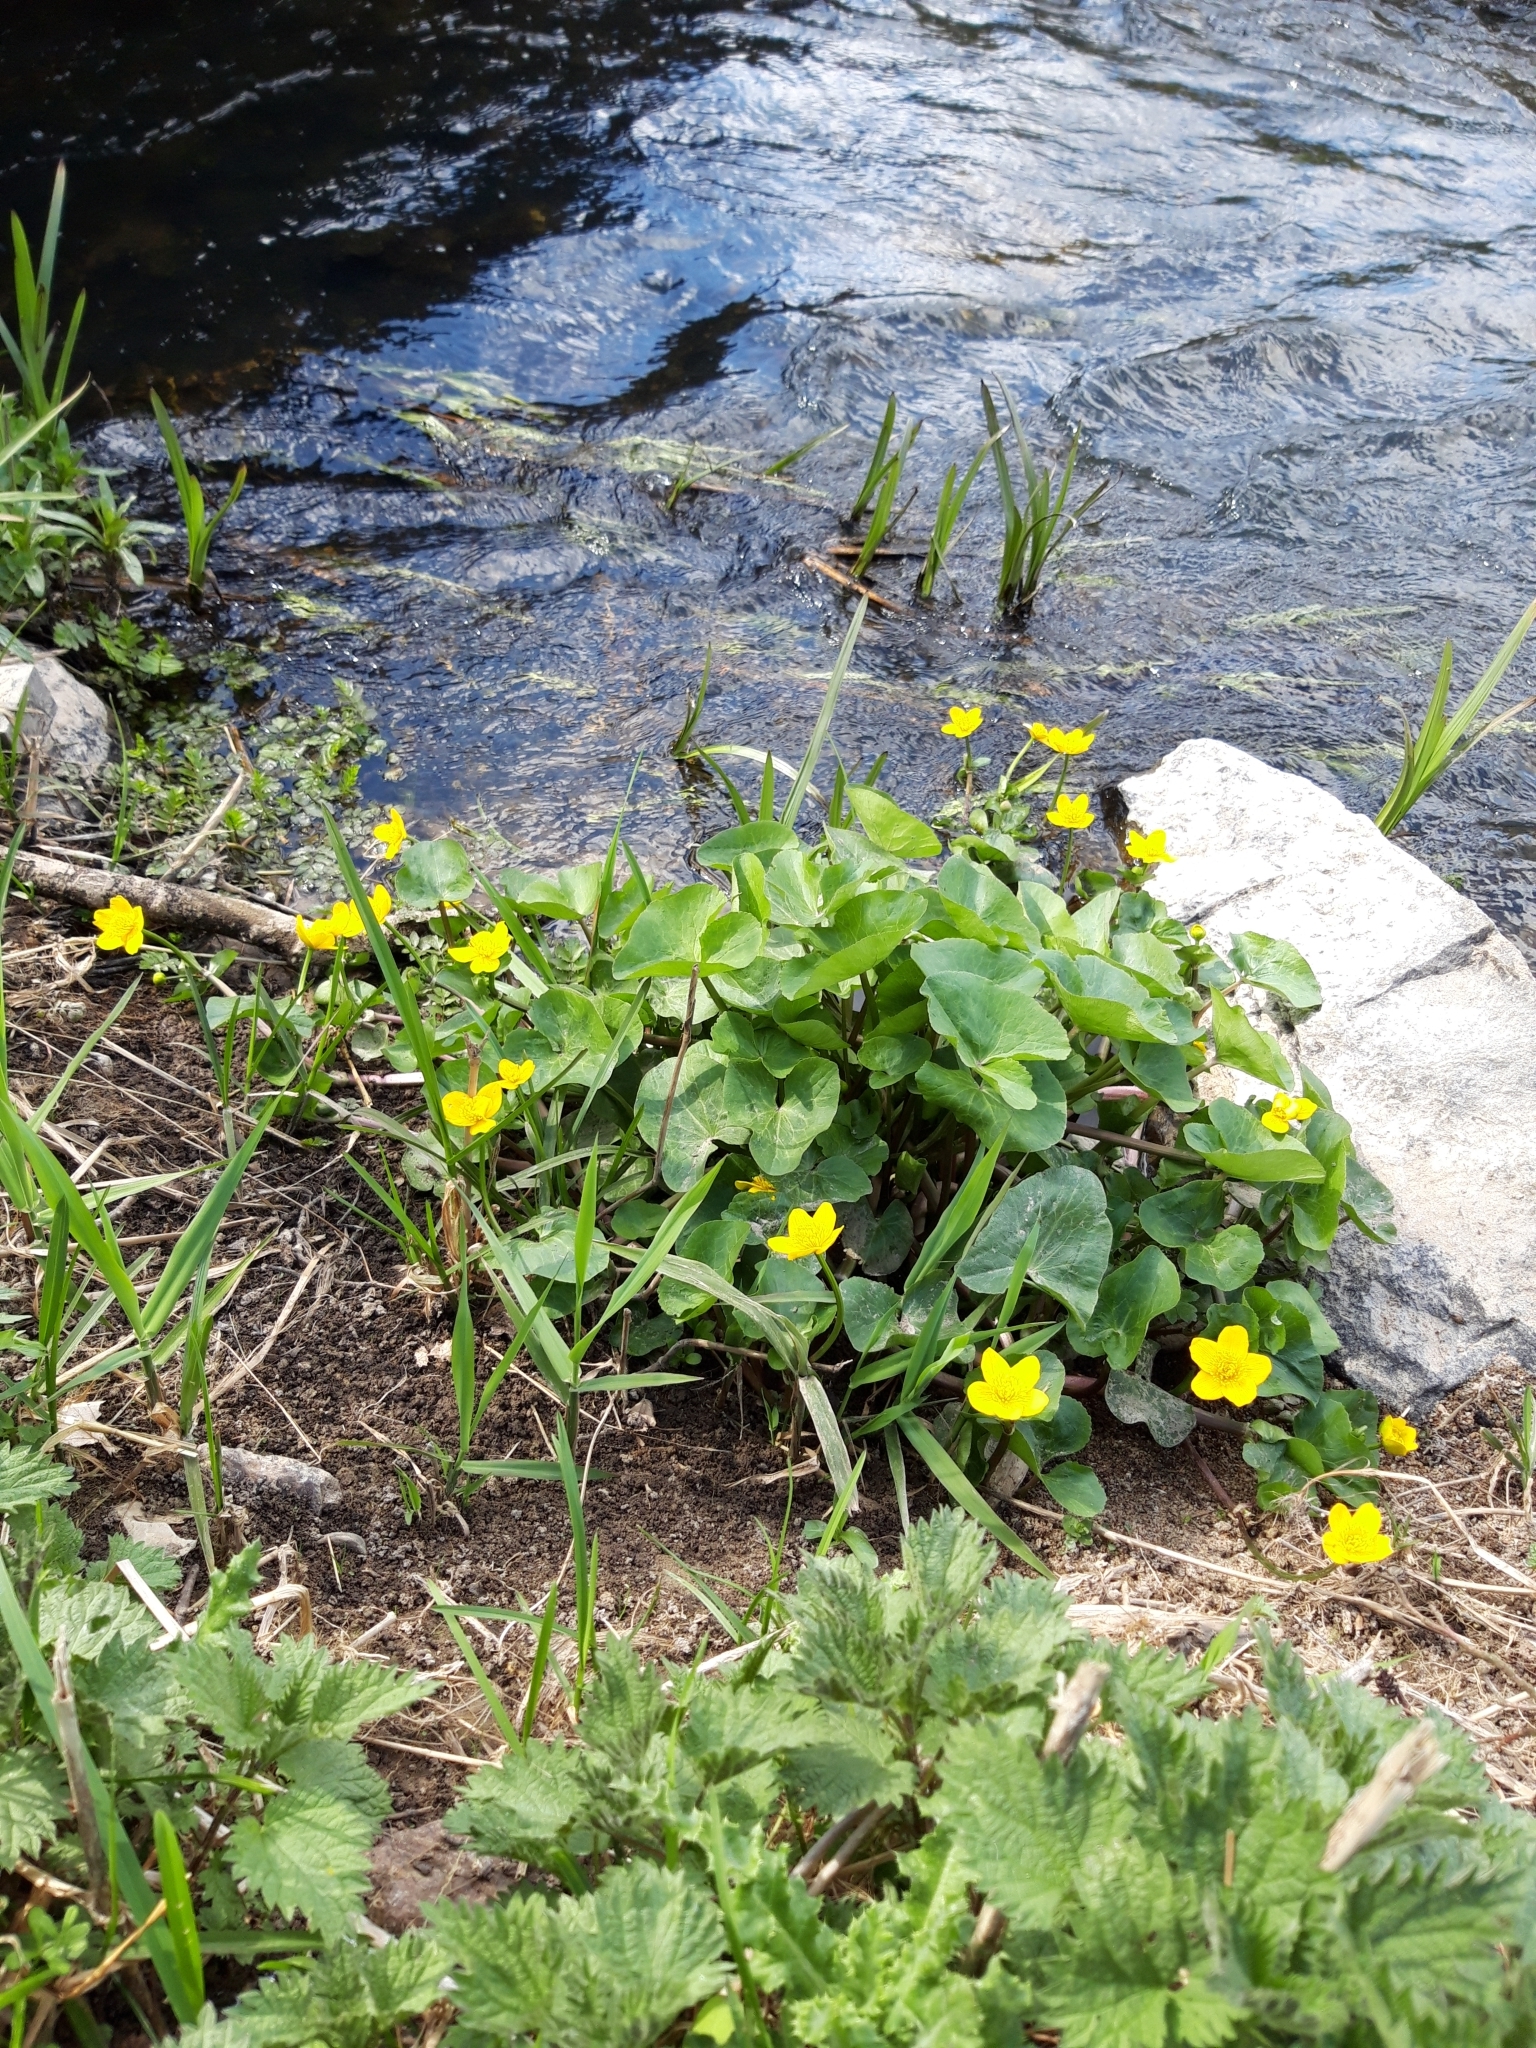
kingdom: Plantae
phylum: Tracheophyta
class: Magnoliopsida
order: Ranunculales
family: Ranunculaceae
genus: Caltha
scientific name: Caltha palustris
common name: Marsh marigold
